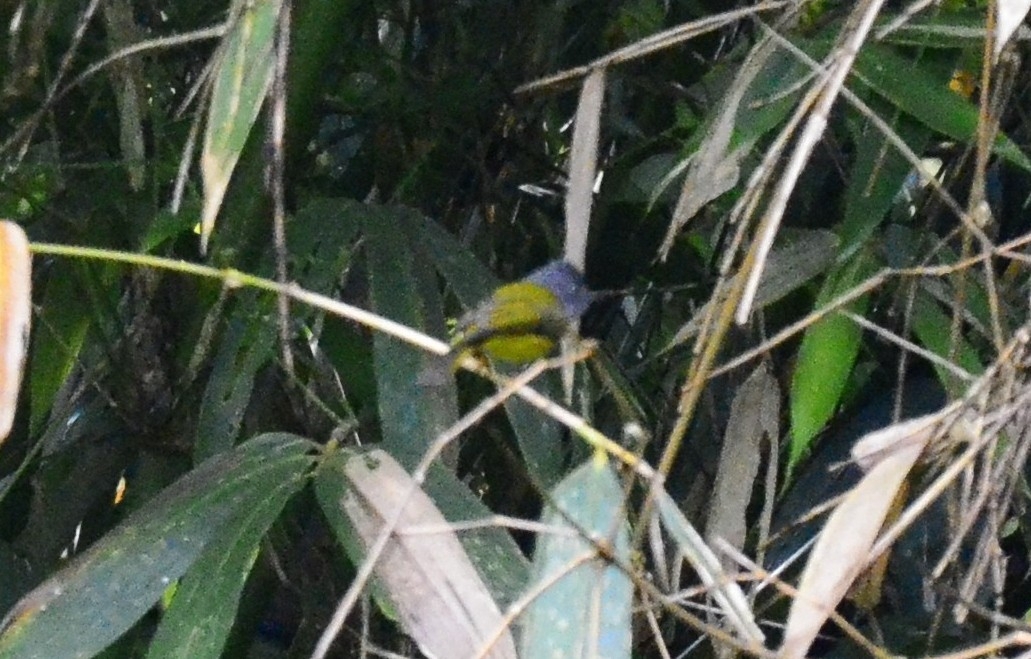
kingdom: Animalia
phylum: Chordata
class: Aves
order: Passeriformes
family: Stenostiridae
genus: Culicicapa
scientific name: Culicicapa ceylonensis
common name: Grey-headed canary-flycatcher
